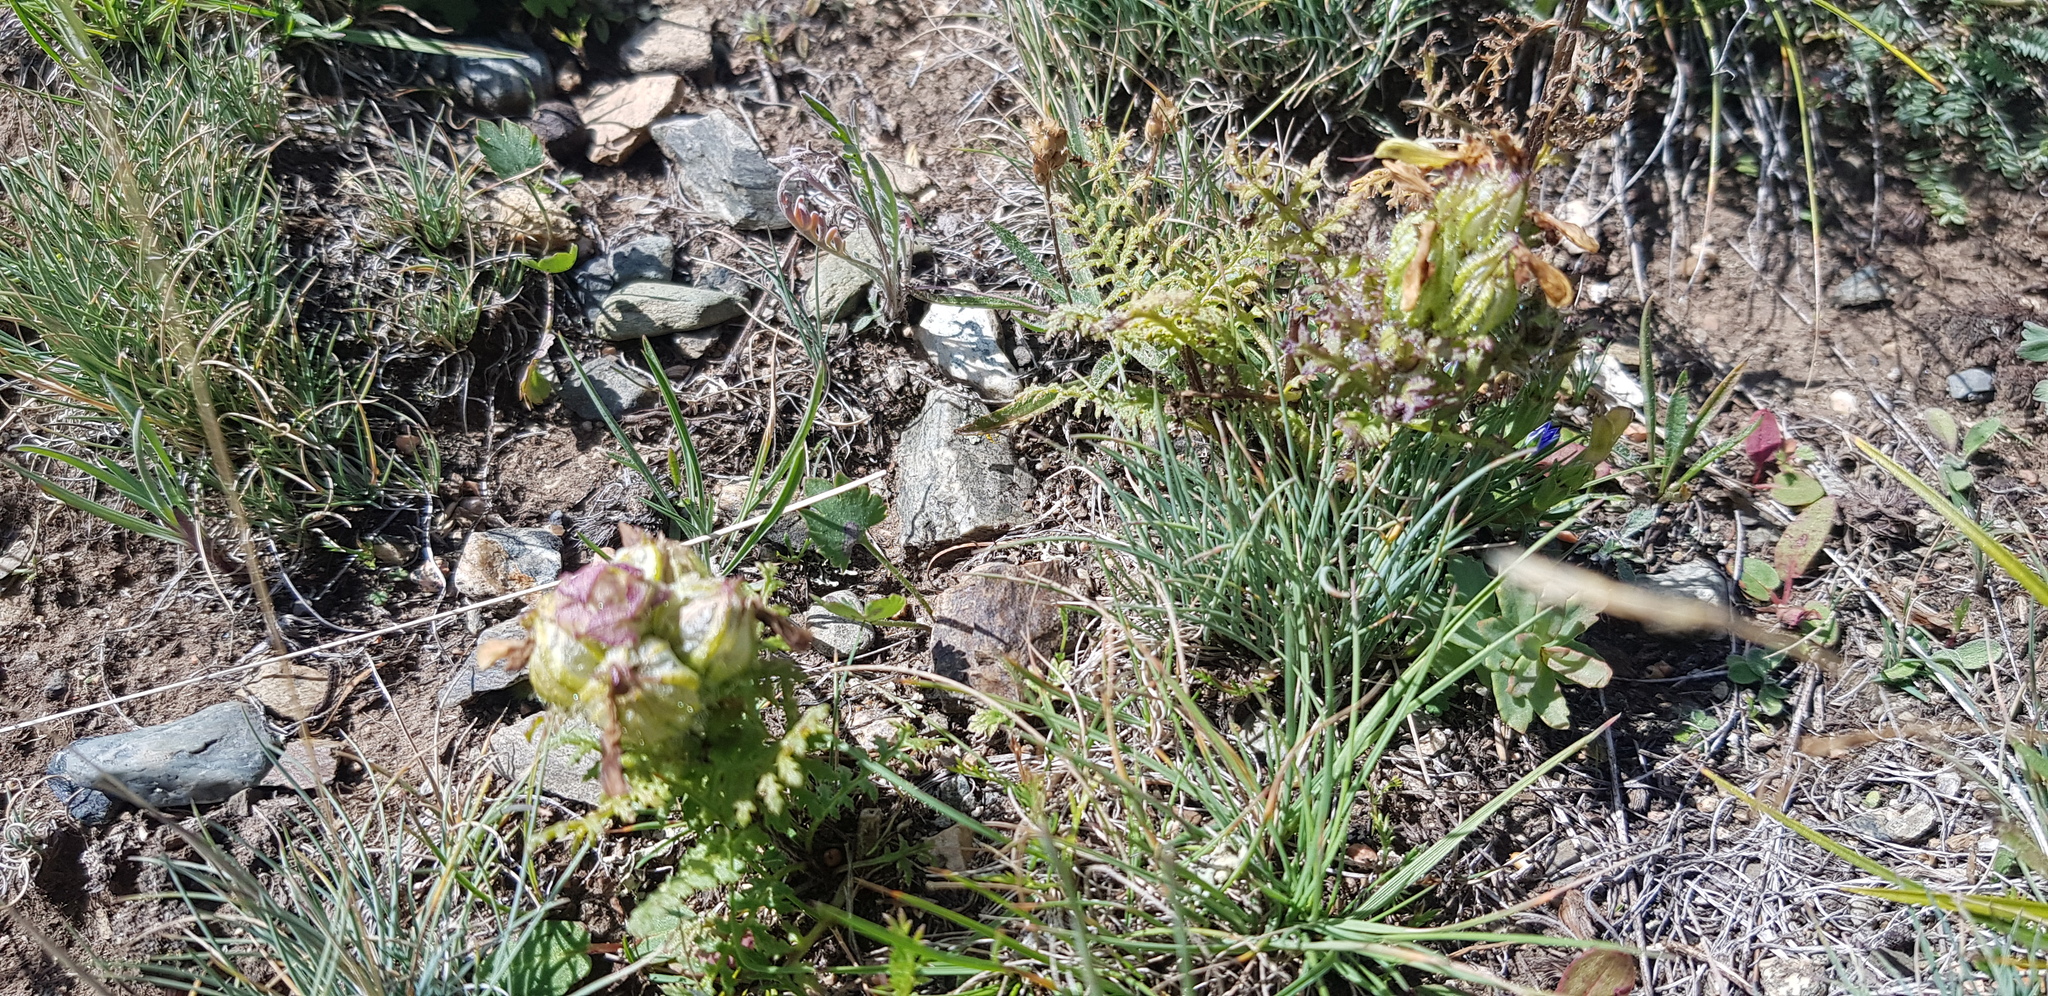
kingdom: Plantae
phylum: Tracheophyta
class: Magnoliopsida
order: Lamiales
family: Orobanchaceae
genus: Pedicularis
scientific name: Pedicularis abrotanifolia
